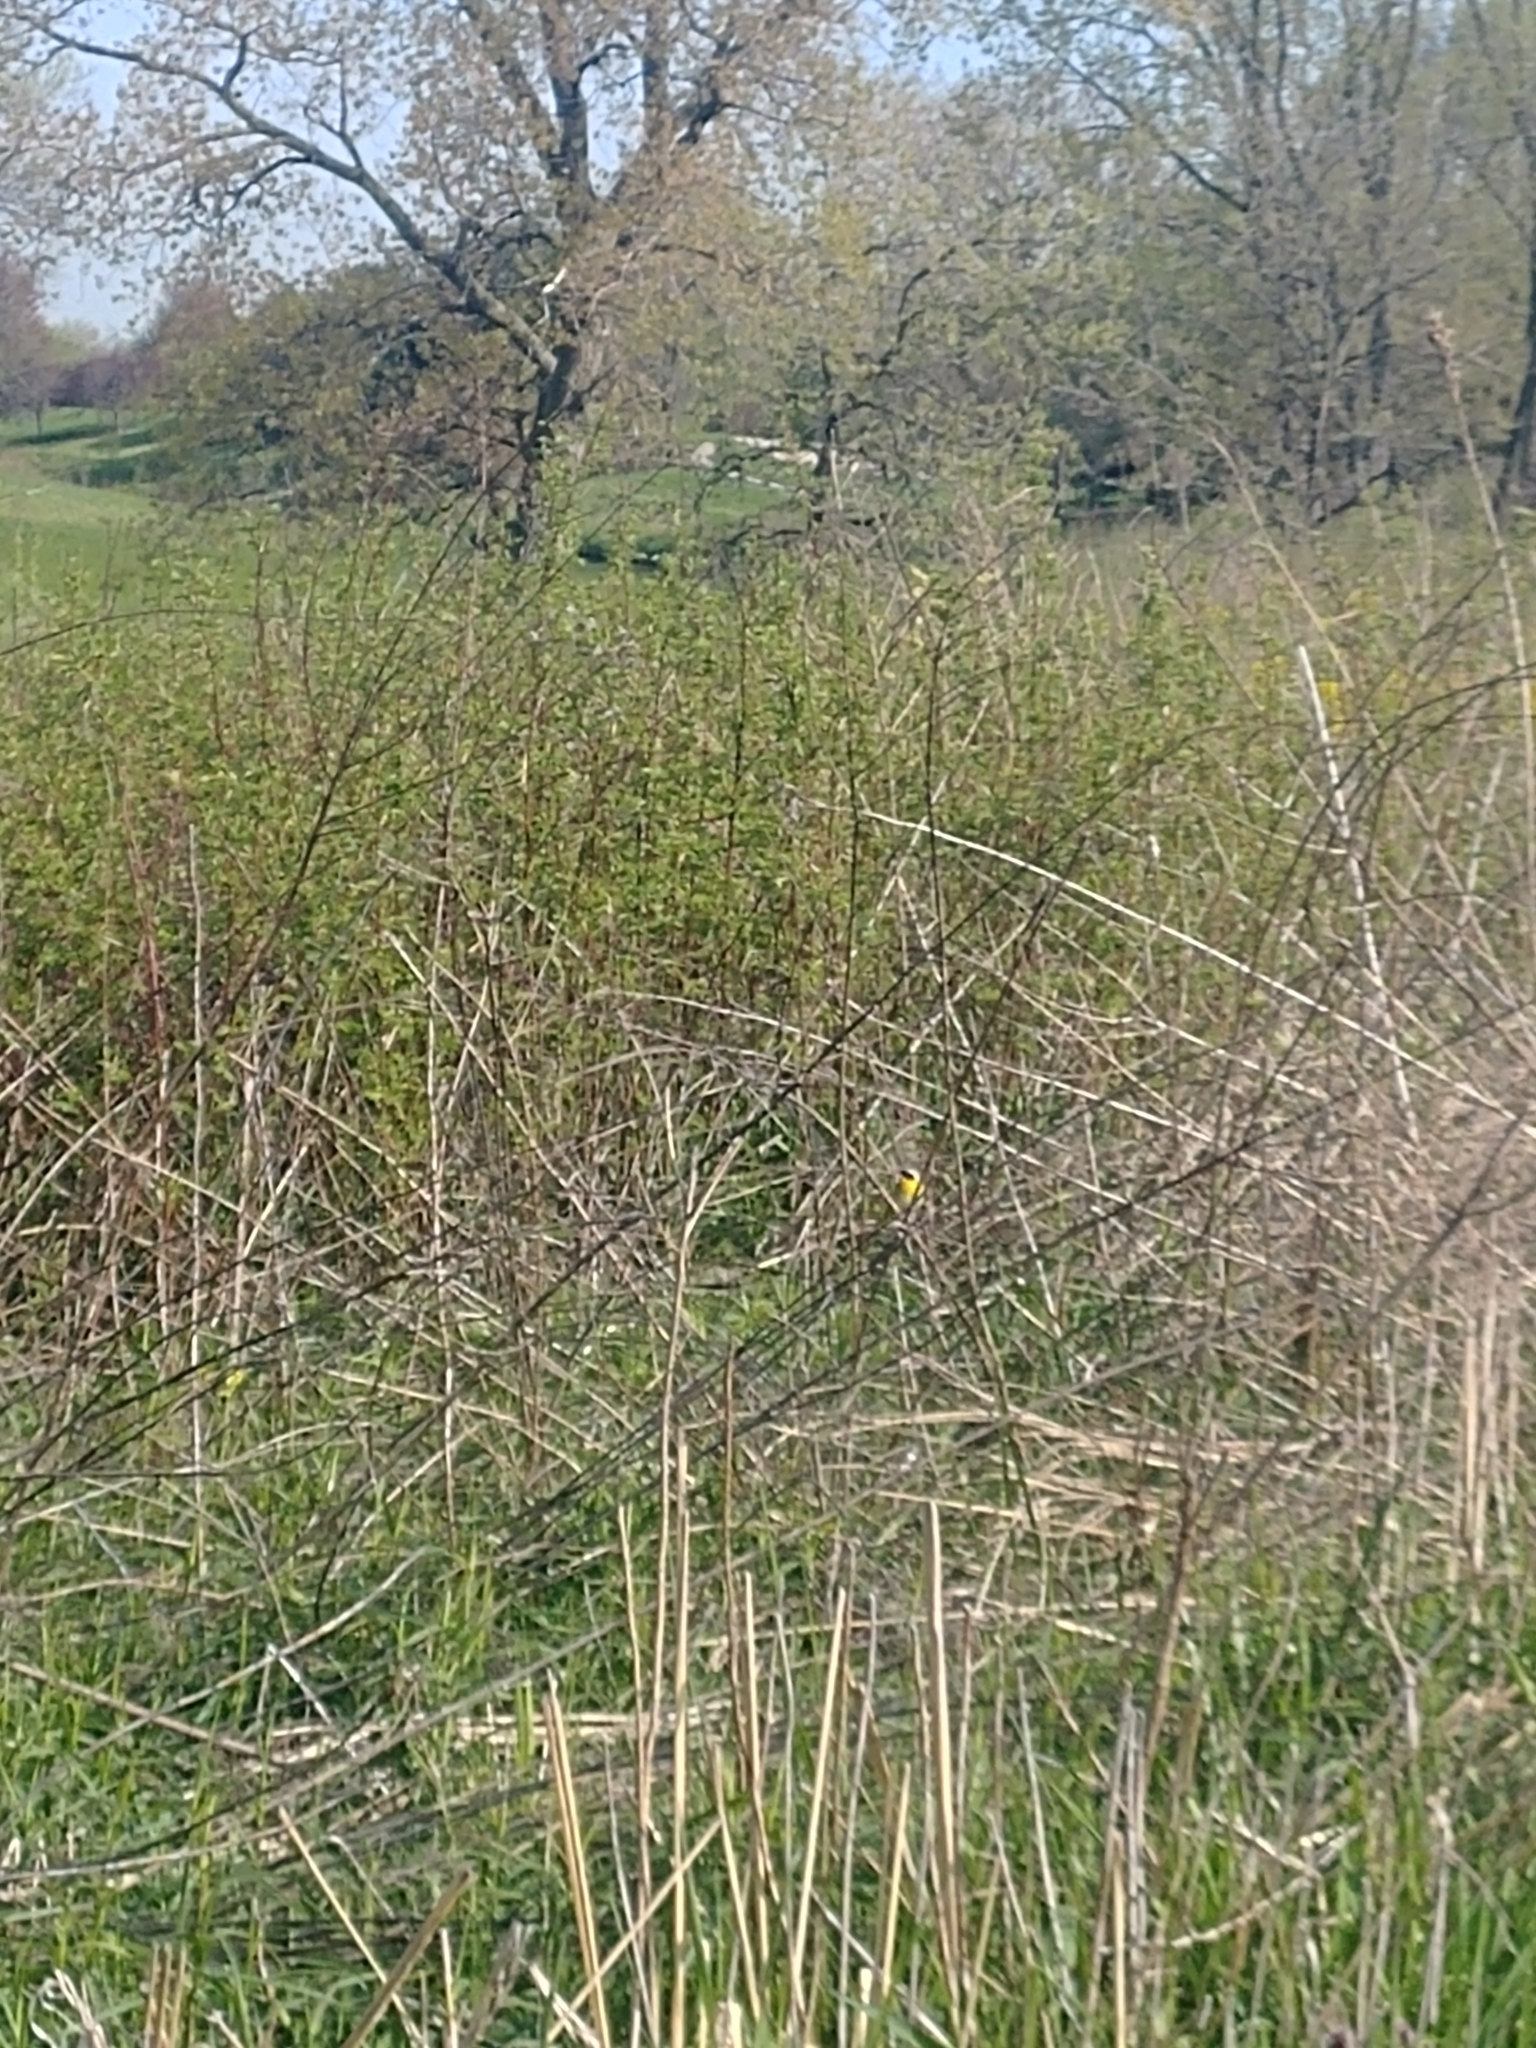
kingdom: Animalia
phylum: Chordata
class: Aves
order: Passeriformes
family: Parulidae
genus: Geothlypis
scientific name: Geothlypis trichas
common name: Common yellowthroat
